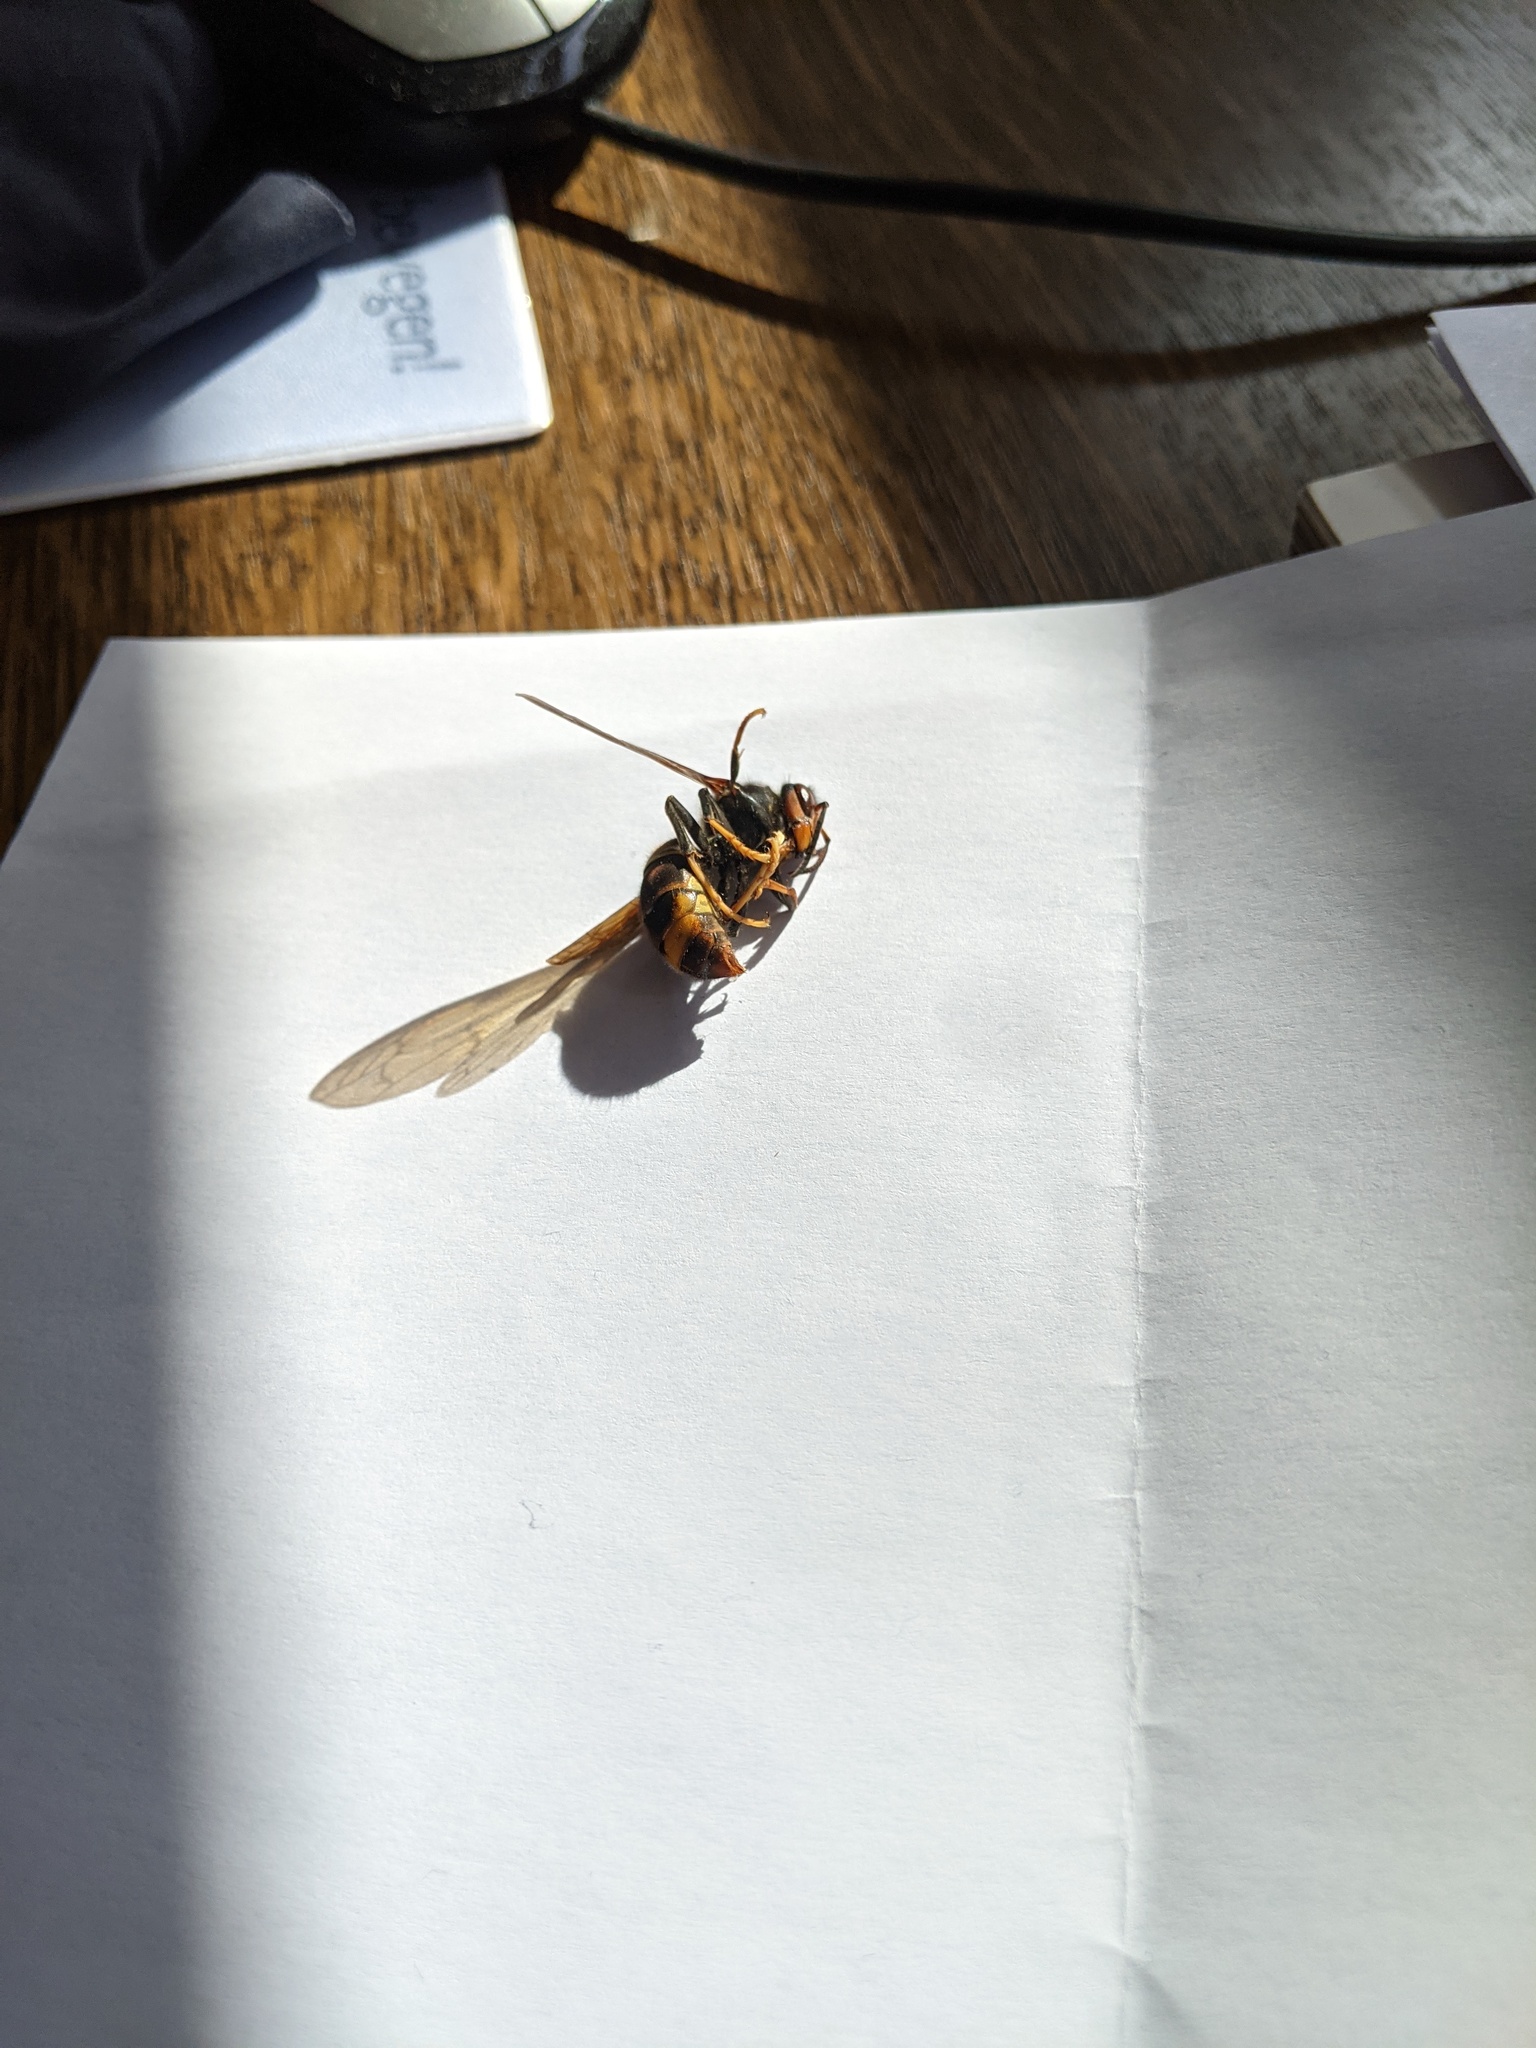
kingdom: Animalia
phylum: Arthropoda
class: Insecta
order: Hymenoptera
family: Vespidae
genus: Vespa
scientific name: Vespa velutina
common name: Asian hornet
